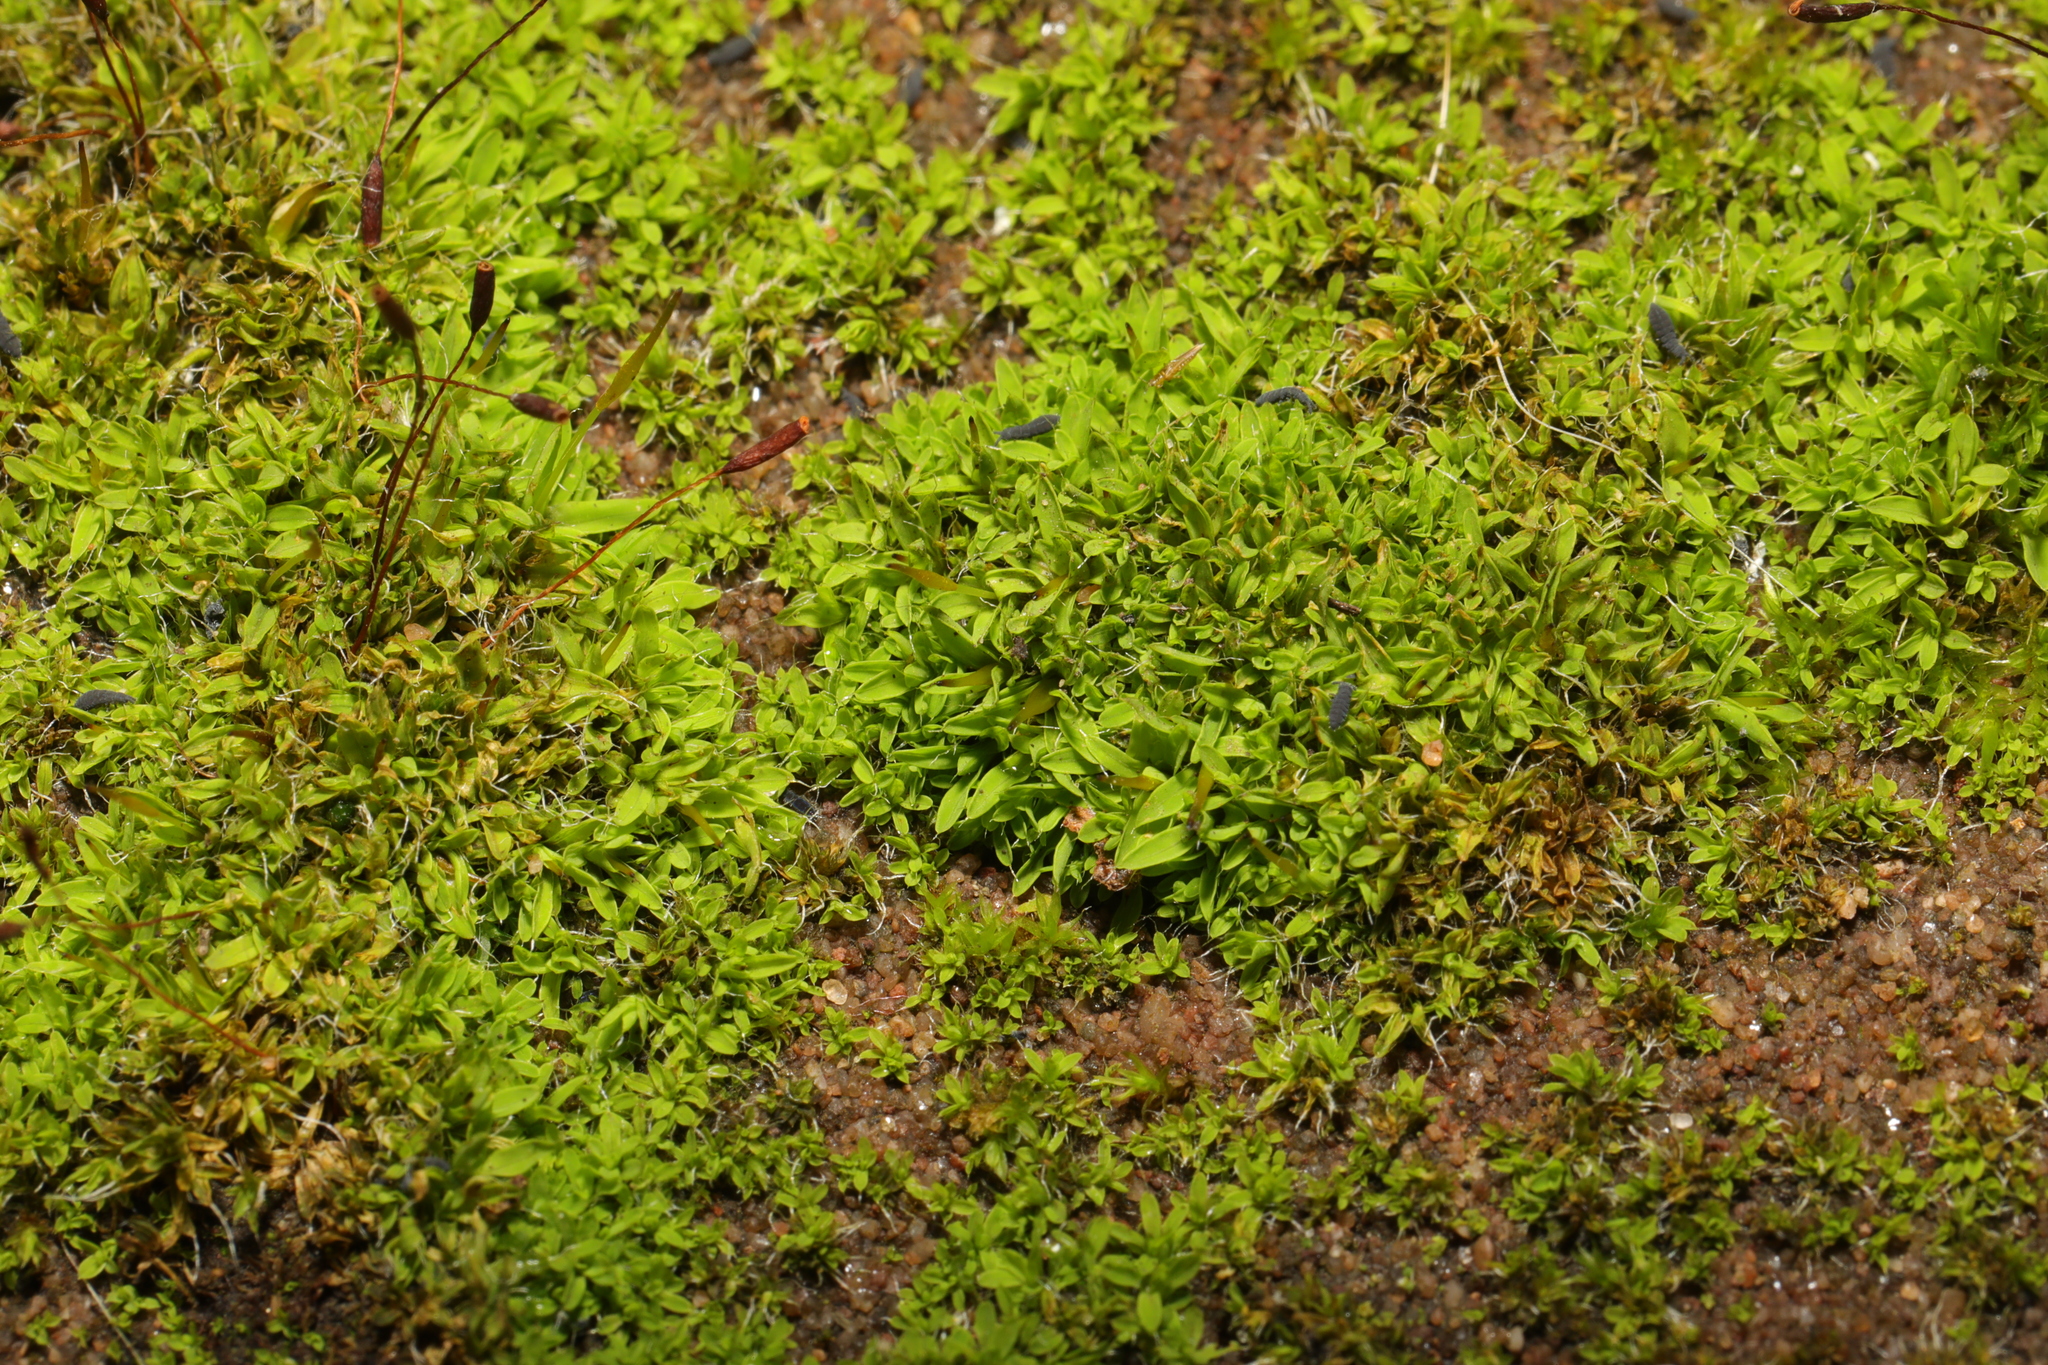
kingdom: Plantae
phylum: Bryophyta
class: Bryopsida
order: Pottiales
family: Pottiaceae
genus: Tortula
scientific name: Tortula muralis
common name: Wall screw-moss
